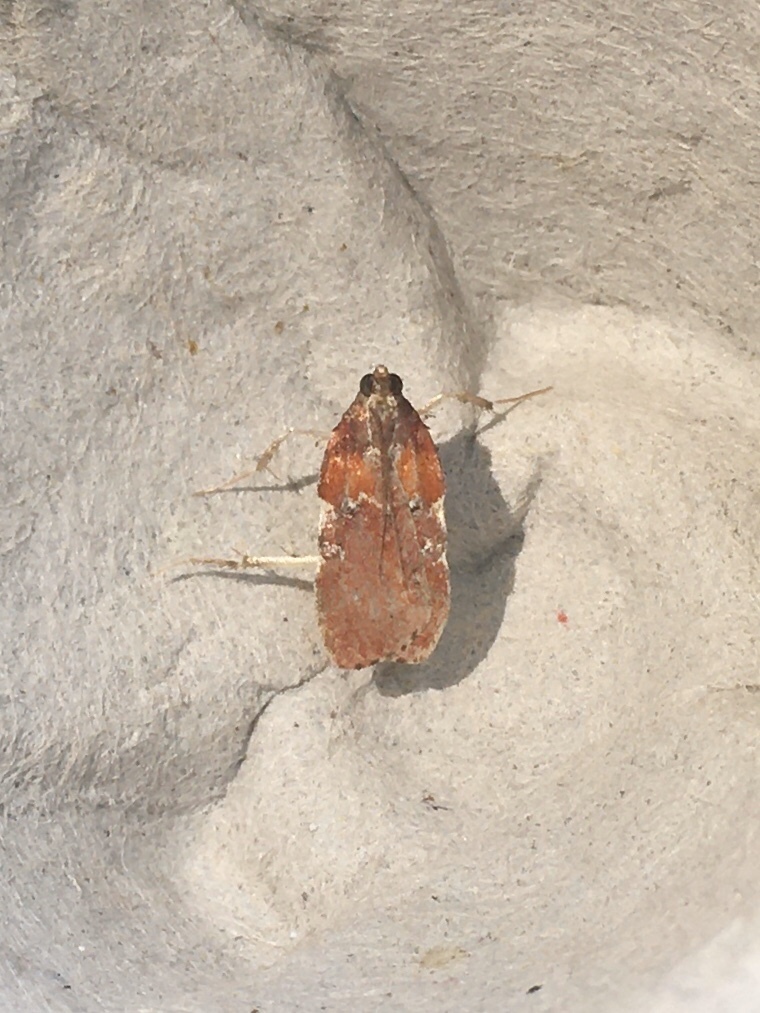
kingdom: Animalia
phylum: Arthropoda
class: Insecta
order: Lepidoptera
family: Pyralidae
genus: Galasa
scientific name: Galasa nigrinodis
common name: Boxwood leaftier moth
